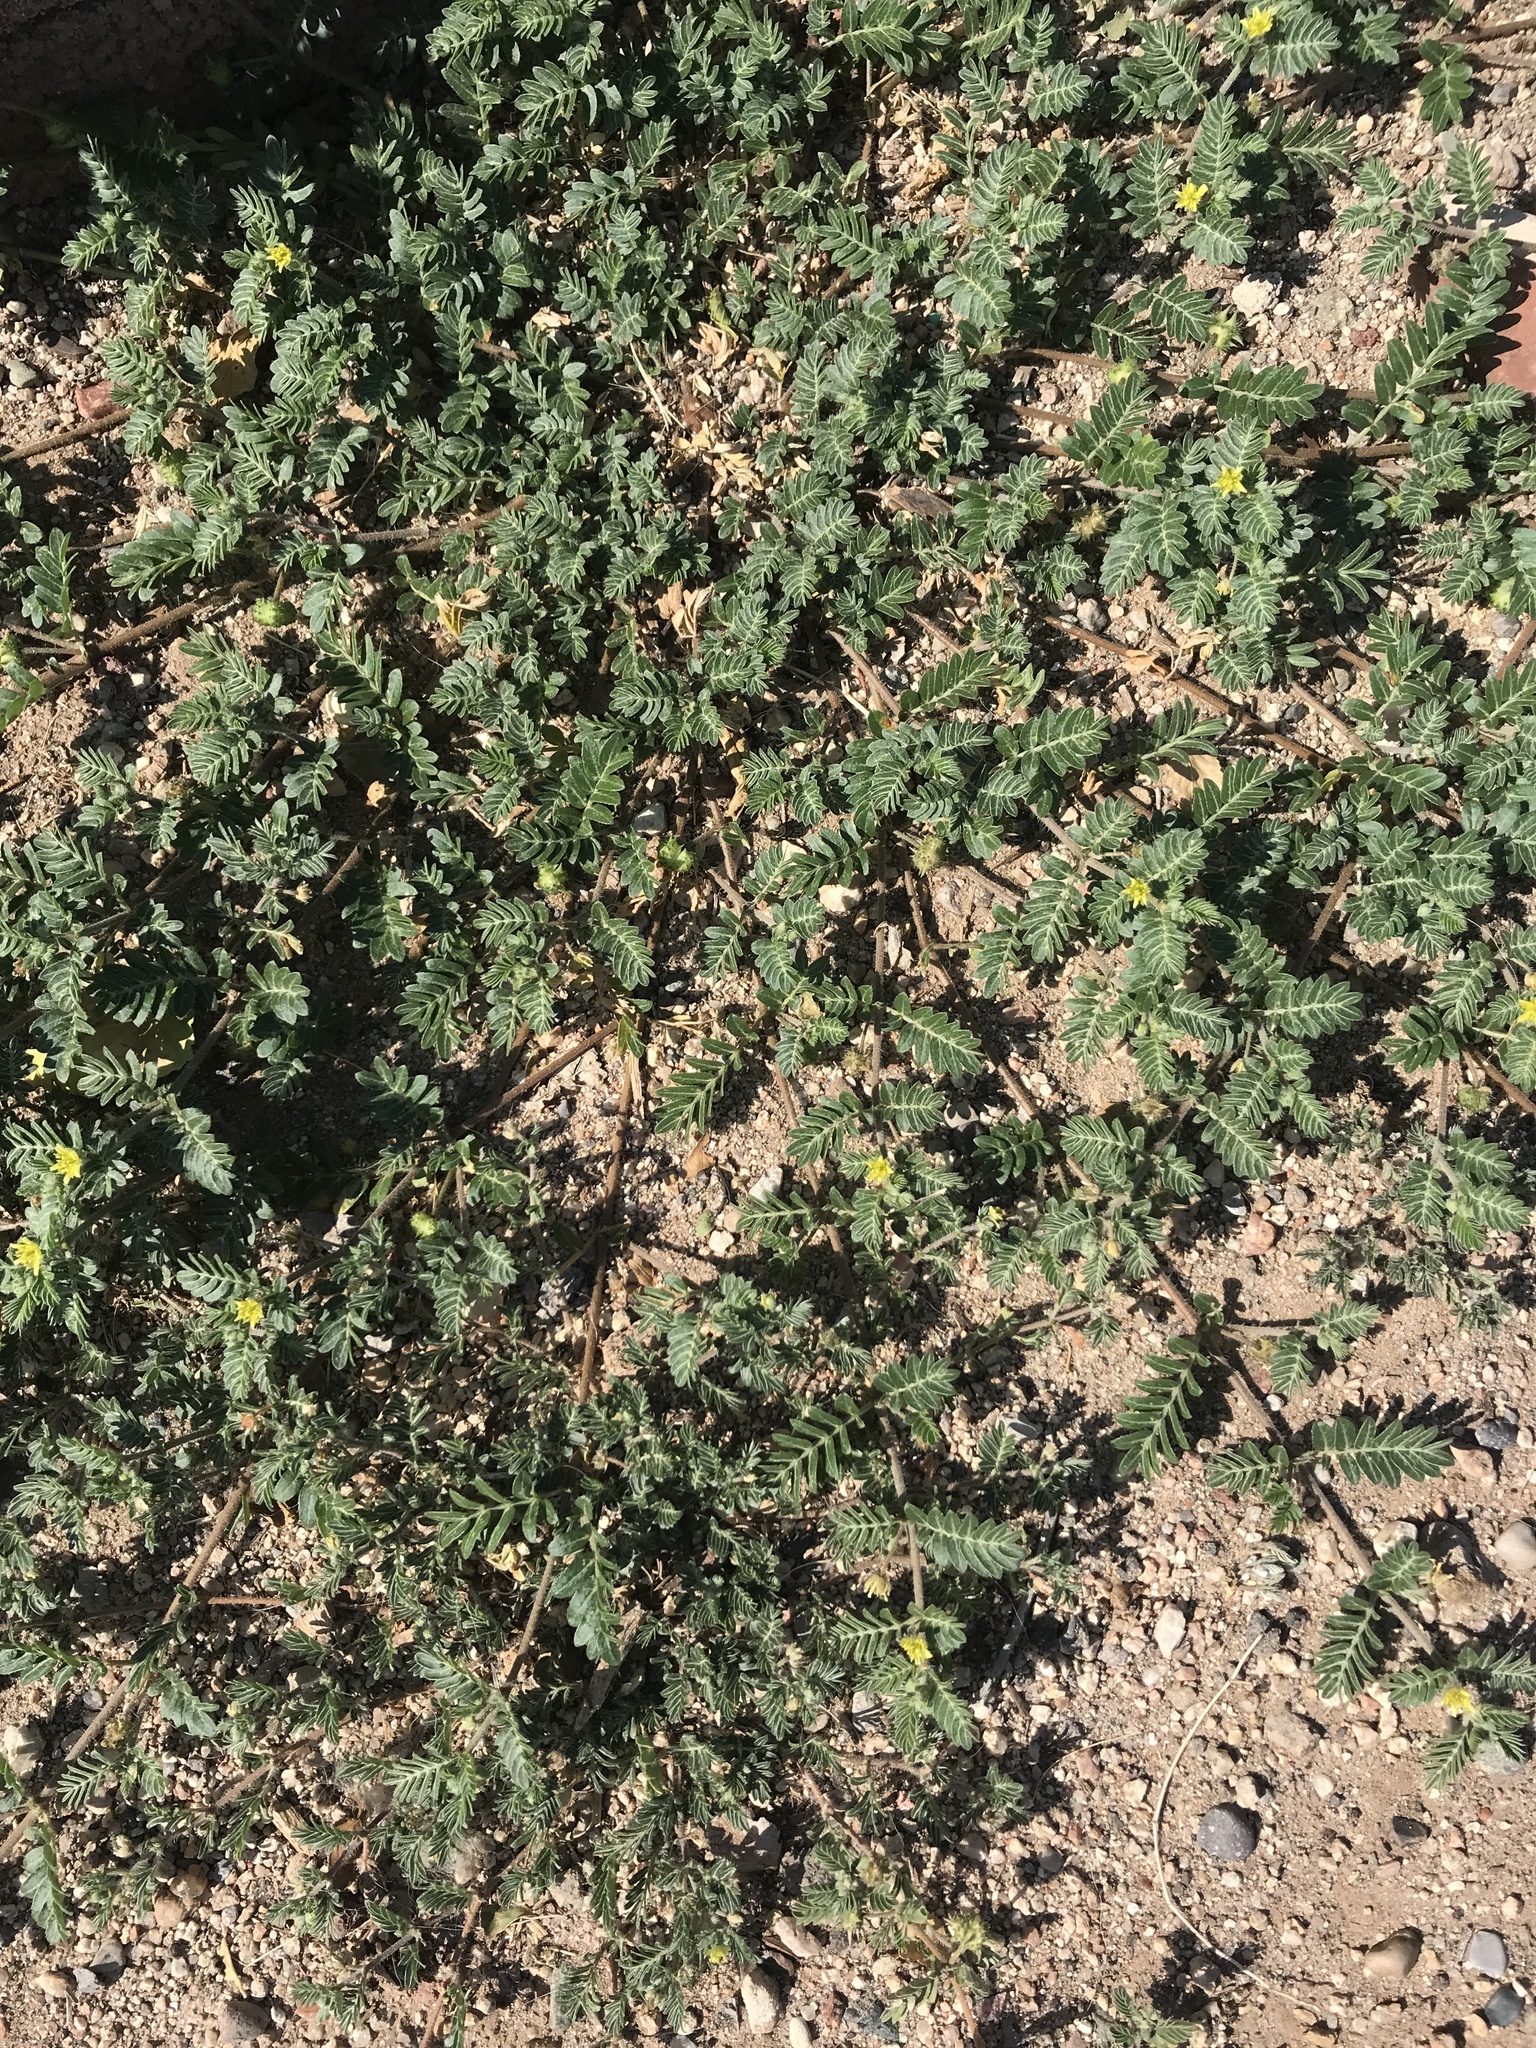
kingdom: Plantae
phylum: Tracheophyta
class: Magnoliopsida
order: Zygophyllales
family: Zygophyllaceae
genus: Tribulus
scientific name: Tribulus terrestris
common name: Puncturevine
